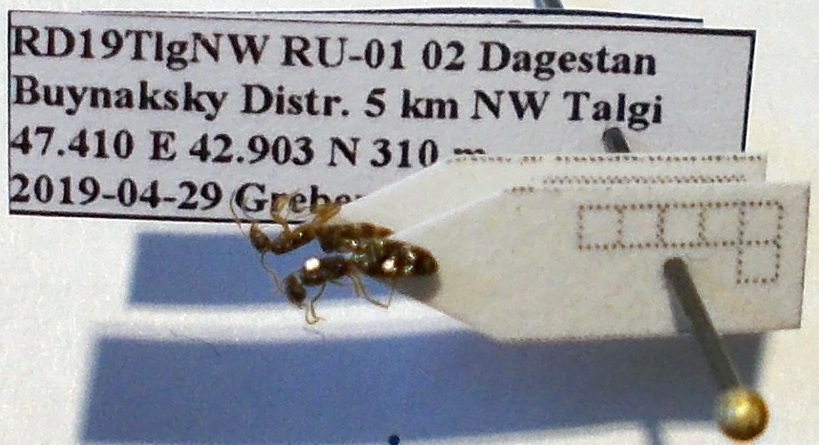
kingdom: Animalia
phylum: Arthropoda
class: Insecta
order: Hymenoptera
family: Formicidae
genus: Plagiolepis
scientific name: Plagiolepis pallescens
